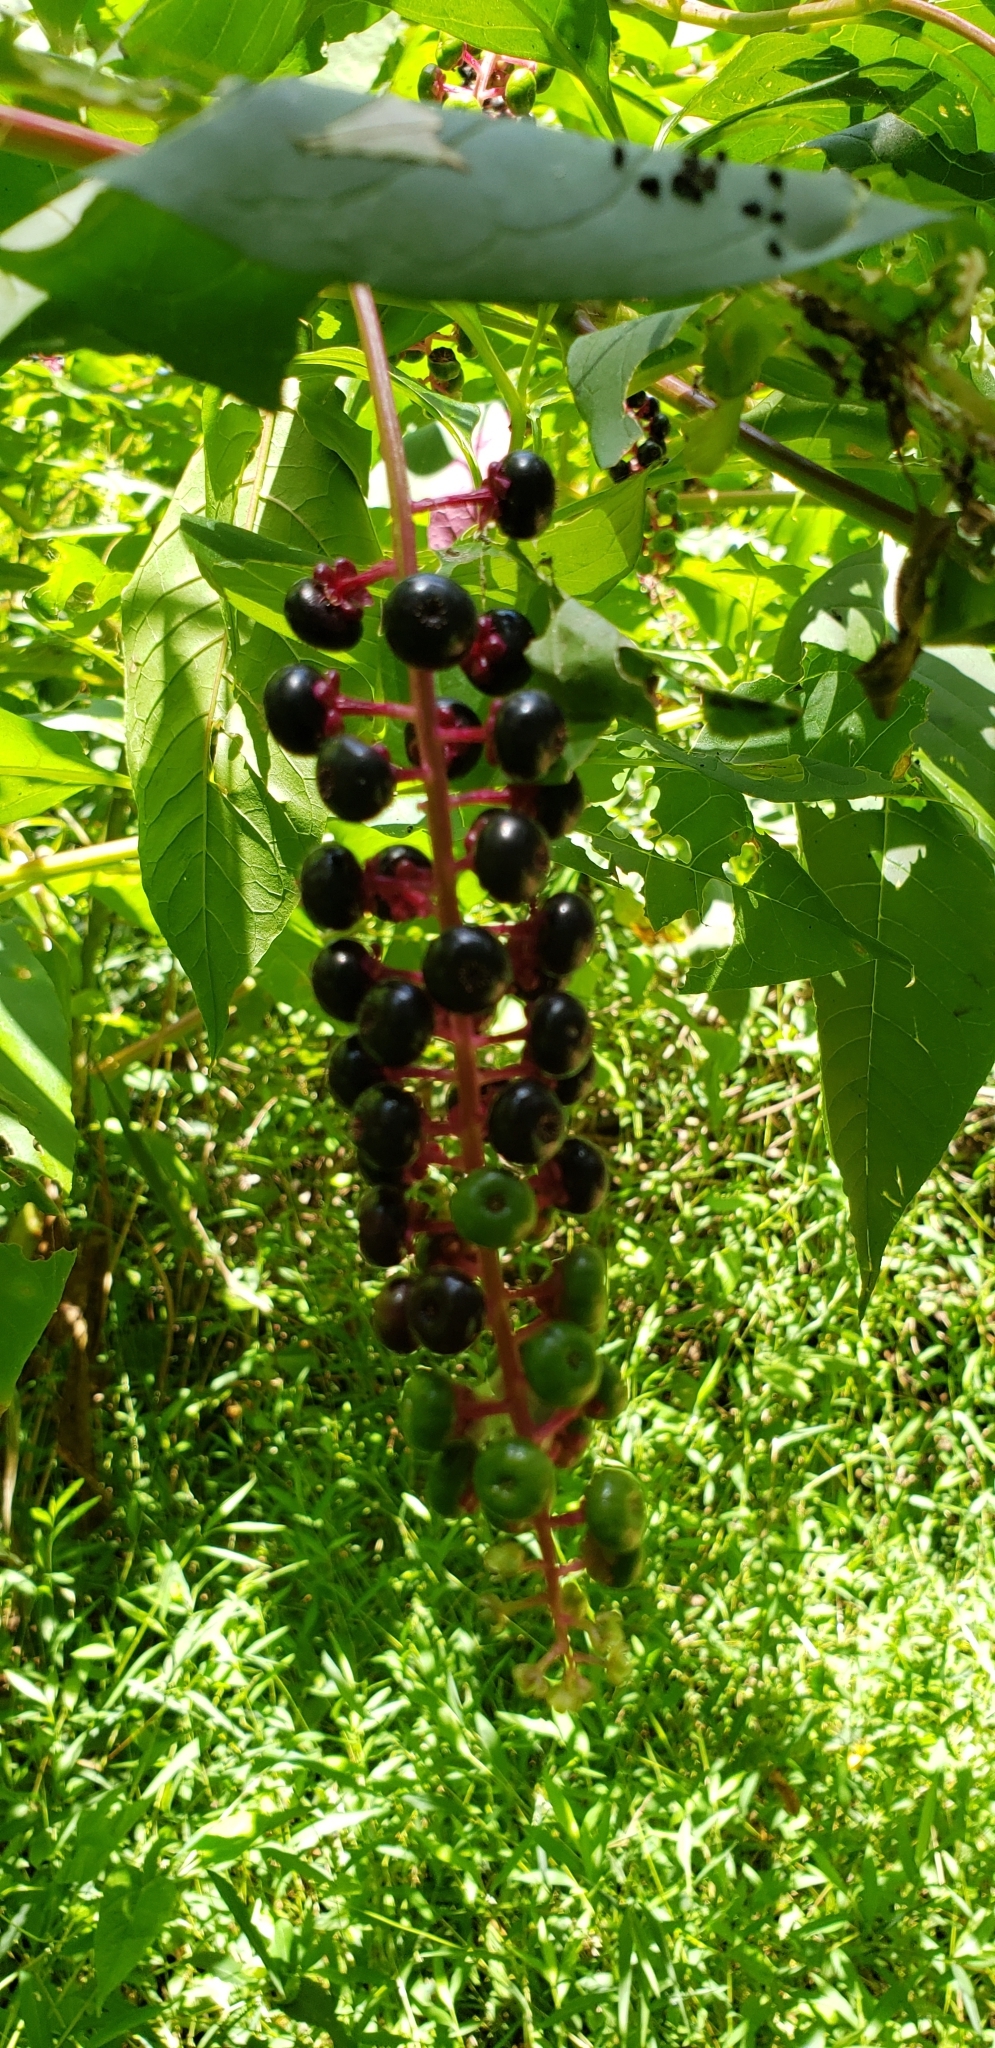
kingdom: Plantae
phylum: Tracheophyta
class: Magnoliopsida
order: Caryophyllales
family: Phytolaccaceae
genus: Phytolacca
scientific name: Phytolacca americana
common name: American pokeweed
